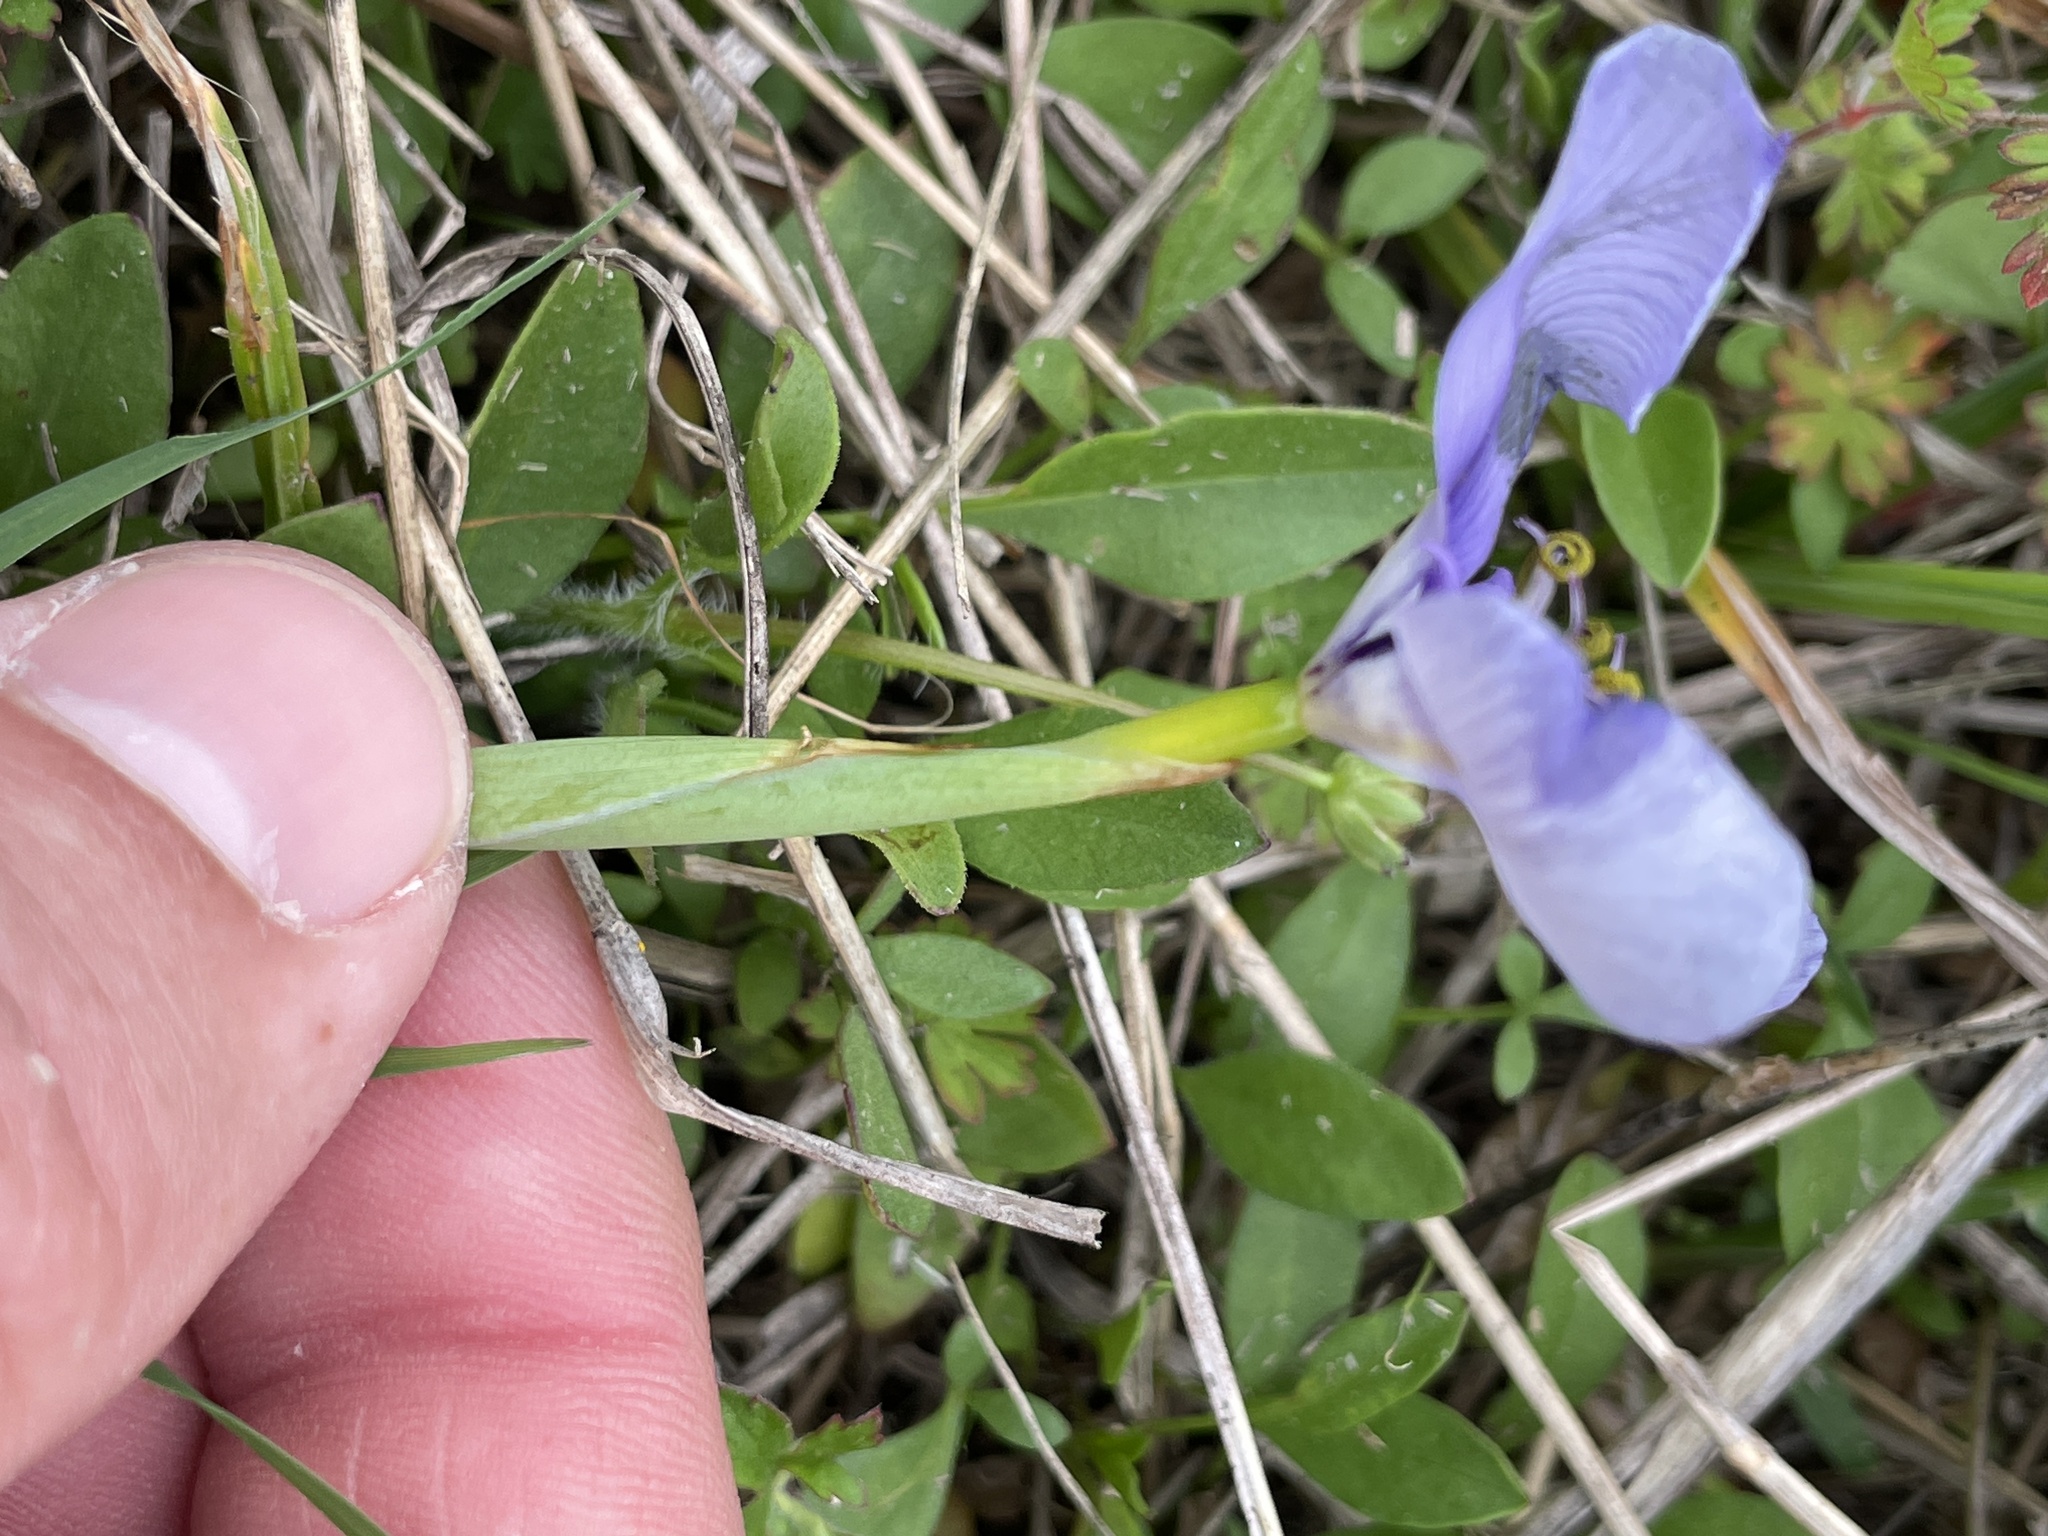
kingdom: Plantae
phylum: Tracheophyta
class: Liliopsida
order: Asparagales
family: Iridaceae
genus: Herbertia
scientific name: Herbertia lahue
